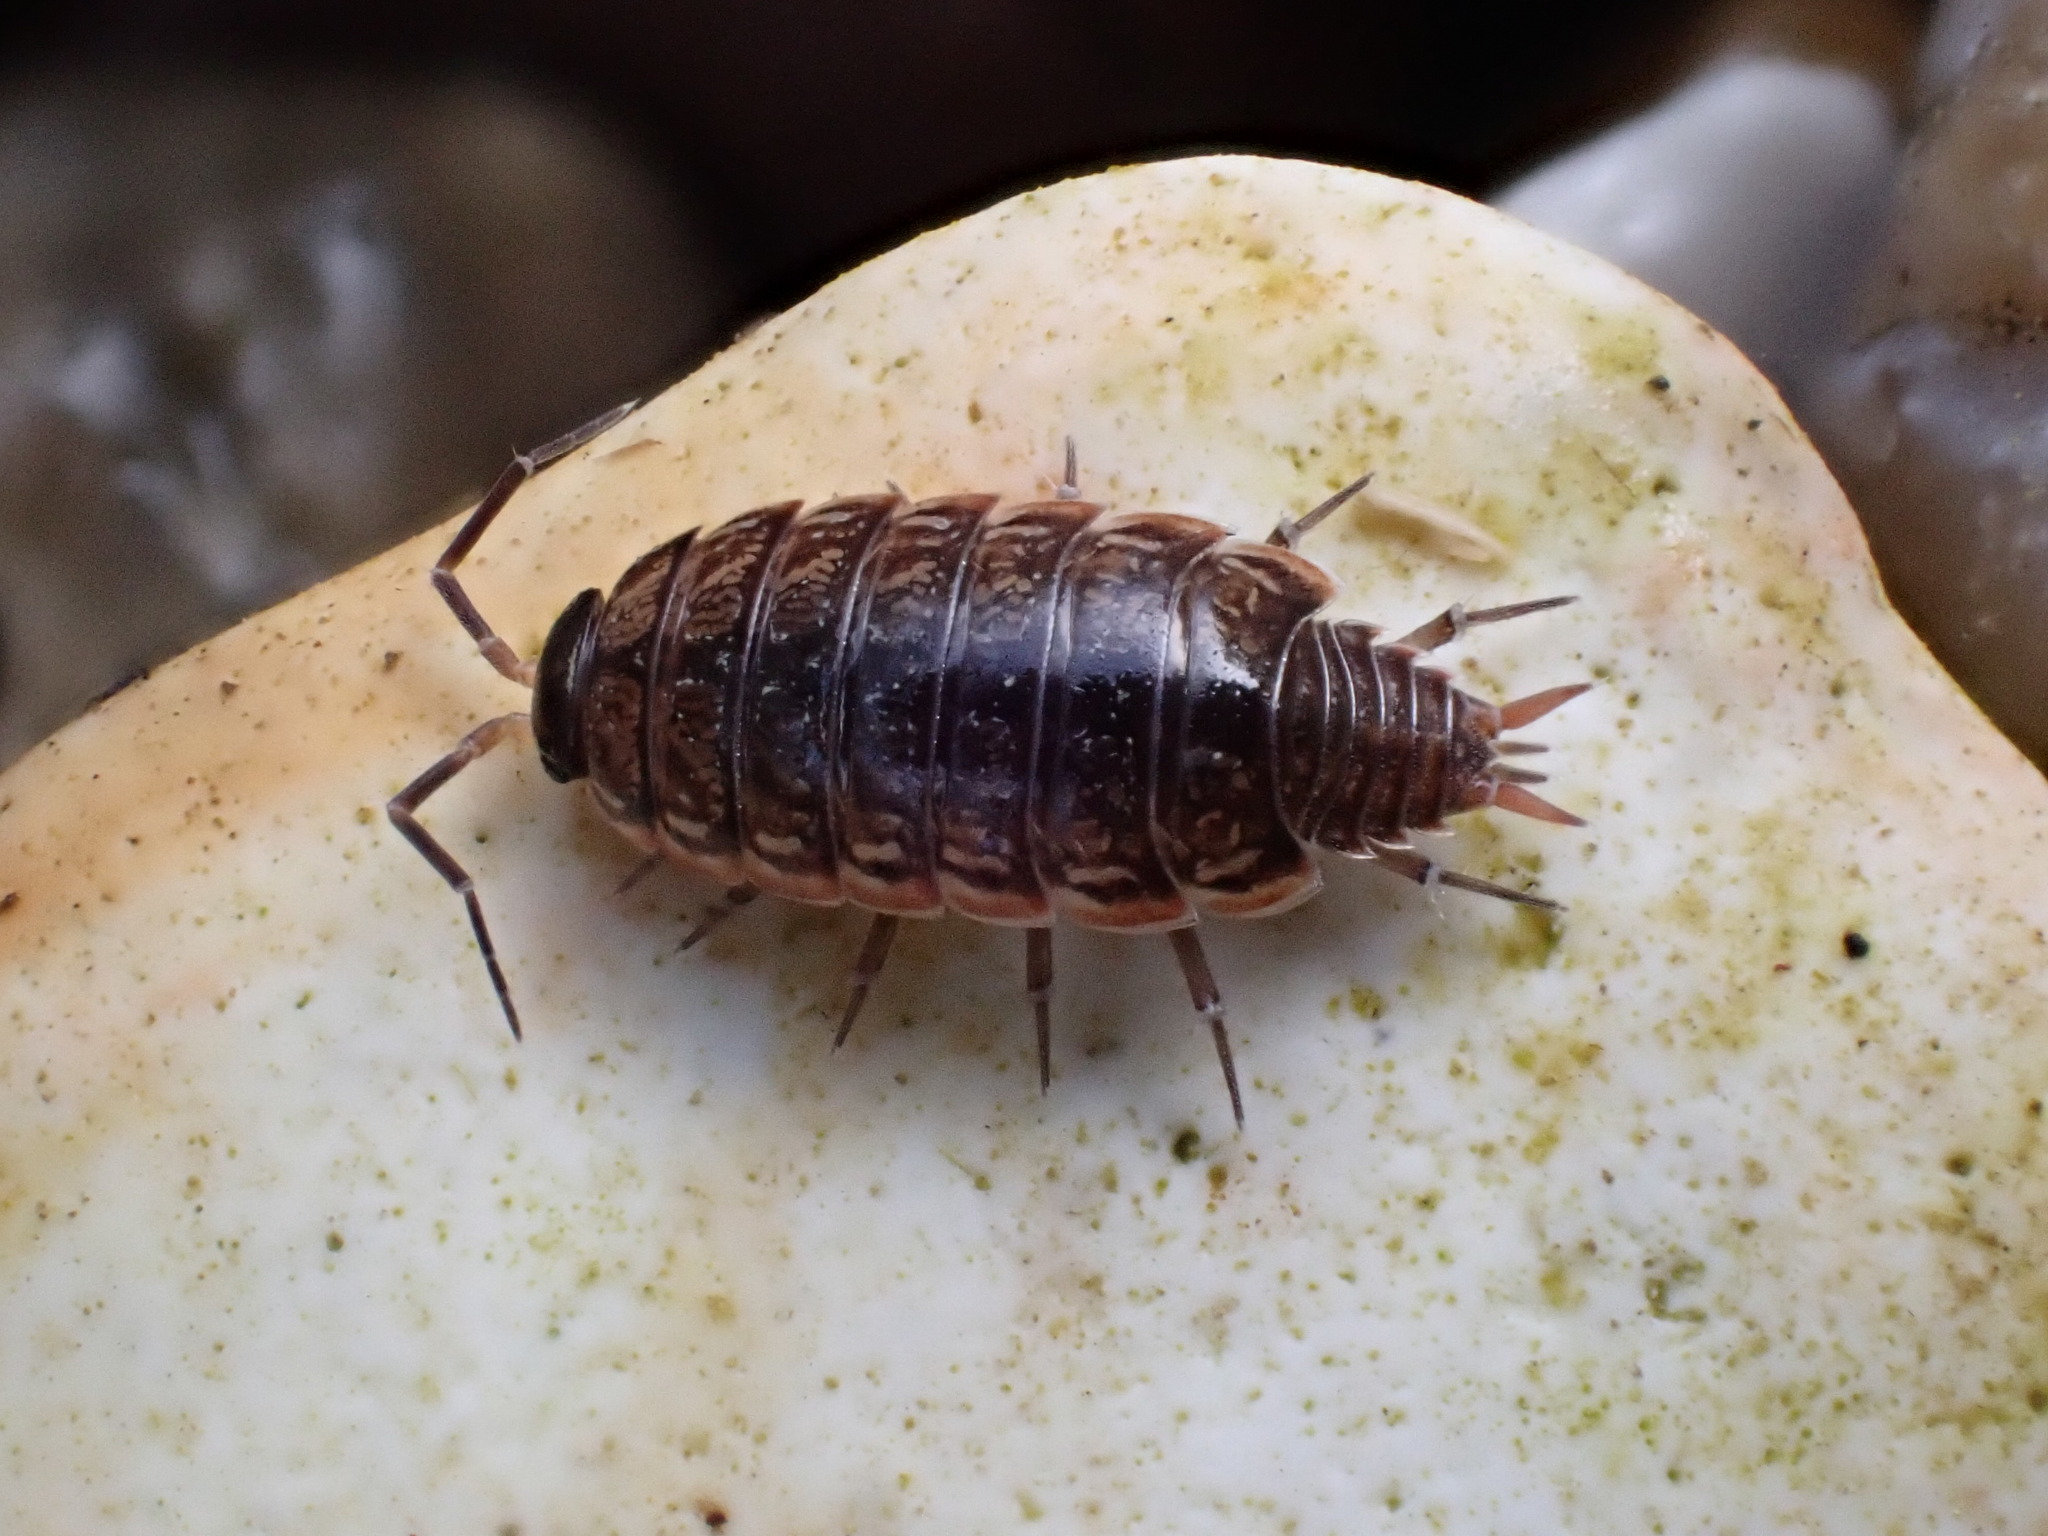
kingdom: Animalia
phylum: Arthropoda
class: Malacostraca
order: Isopoda
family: Philosciidae
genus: Philoscia
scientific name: Philoscia muscorum
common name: Common striped woodlouse
